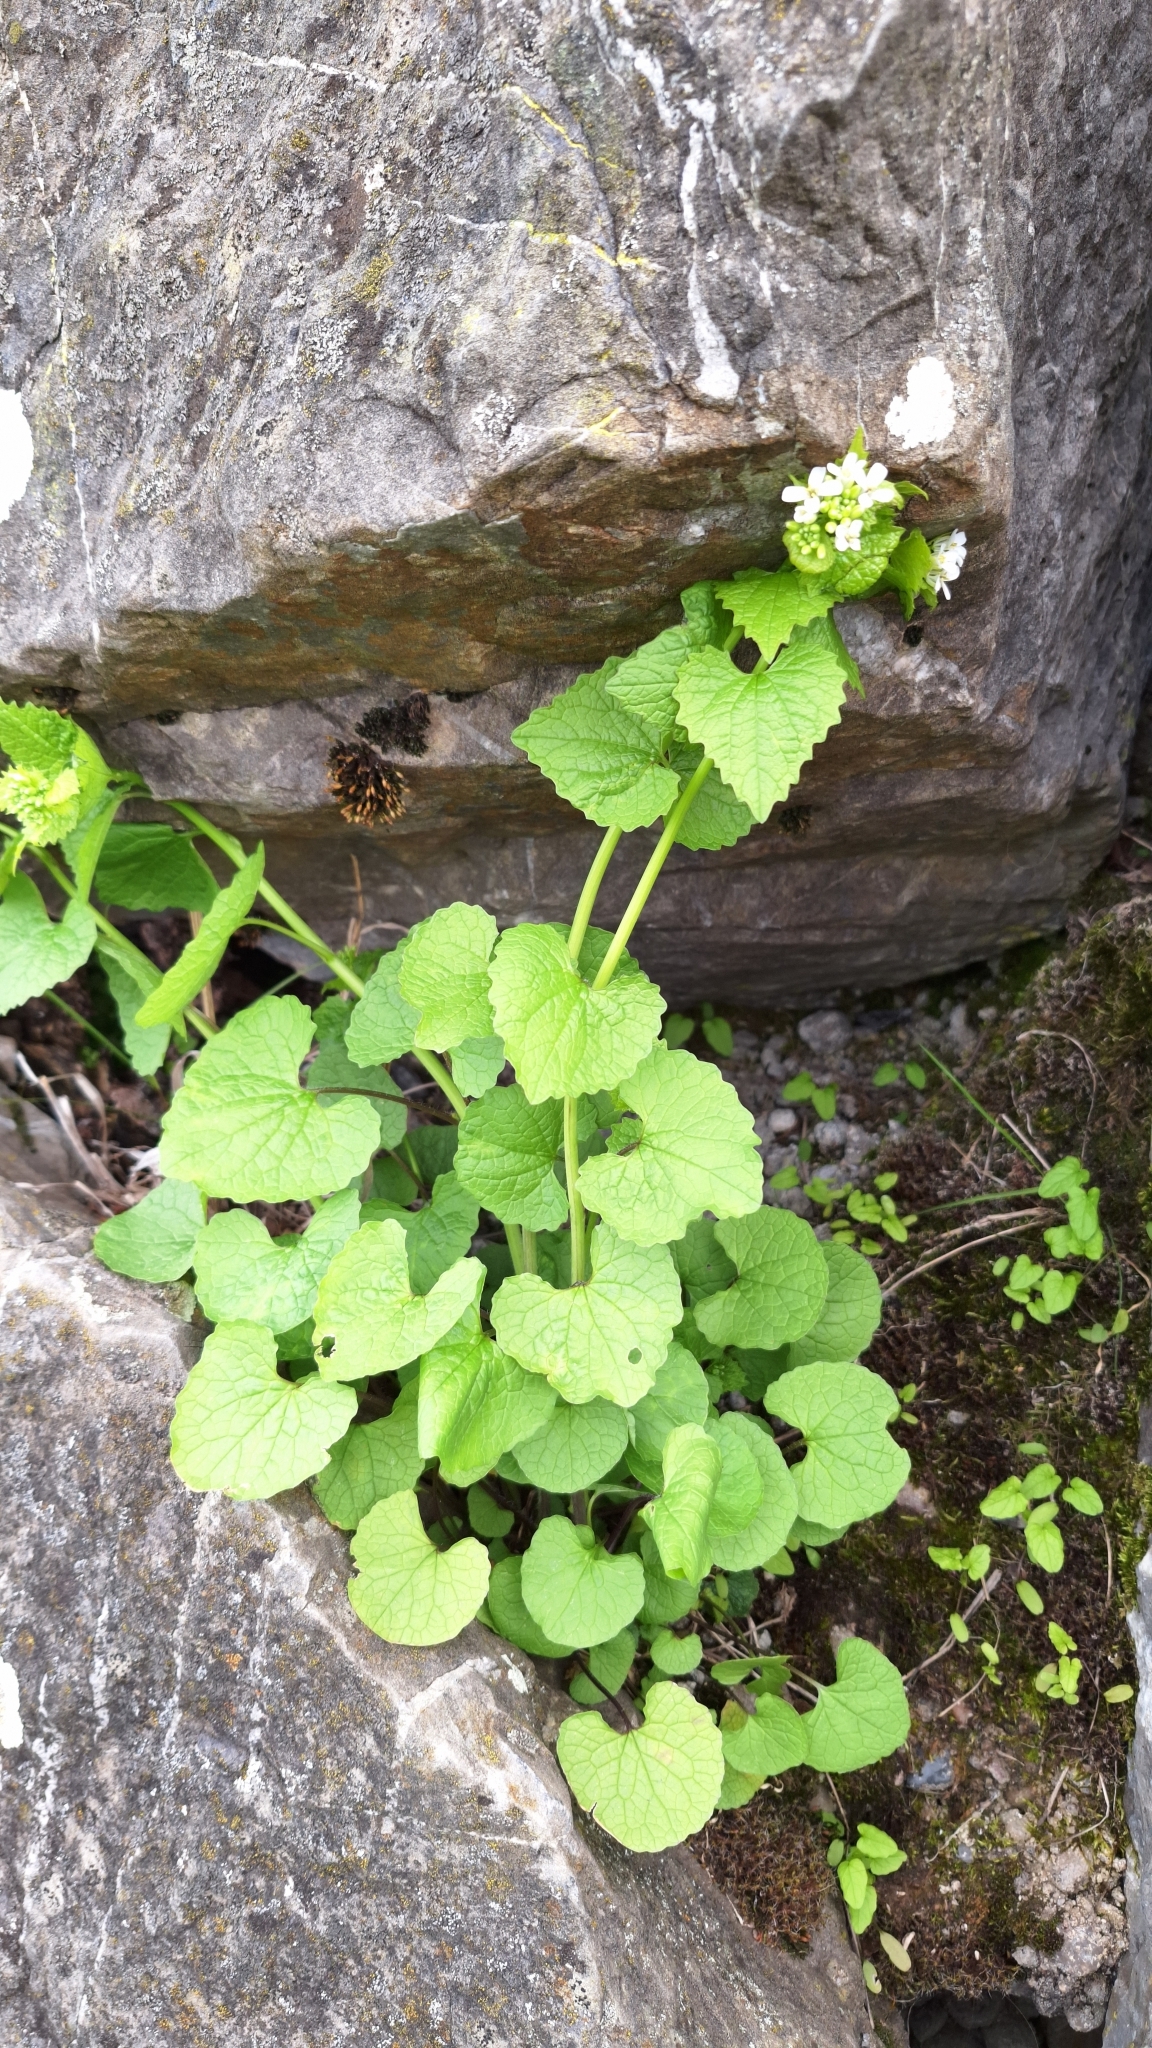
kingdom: Plantae
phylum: Tracheophyta
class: Magnoliopsida
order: Brassicales
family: Brassicaceae
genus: Alliaria
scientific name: Alliaria petiolata
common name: Garlic mustard
